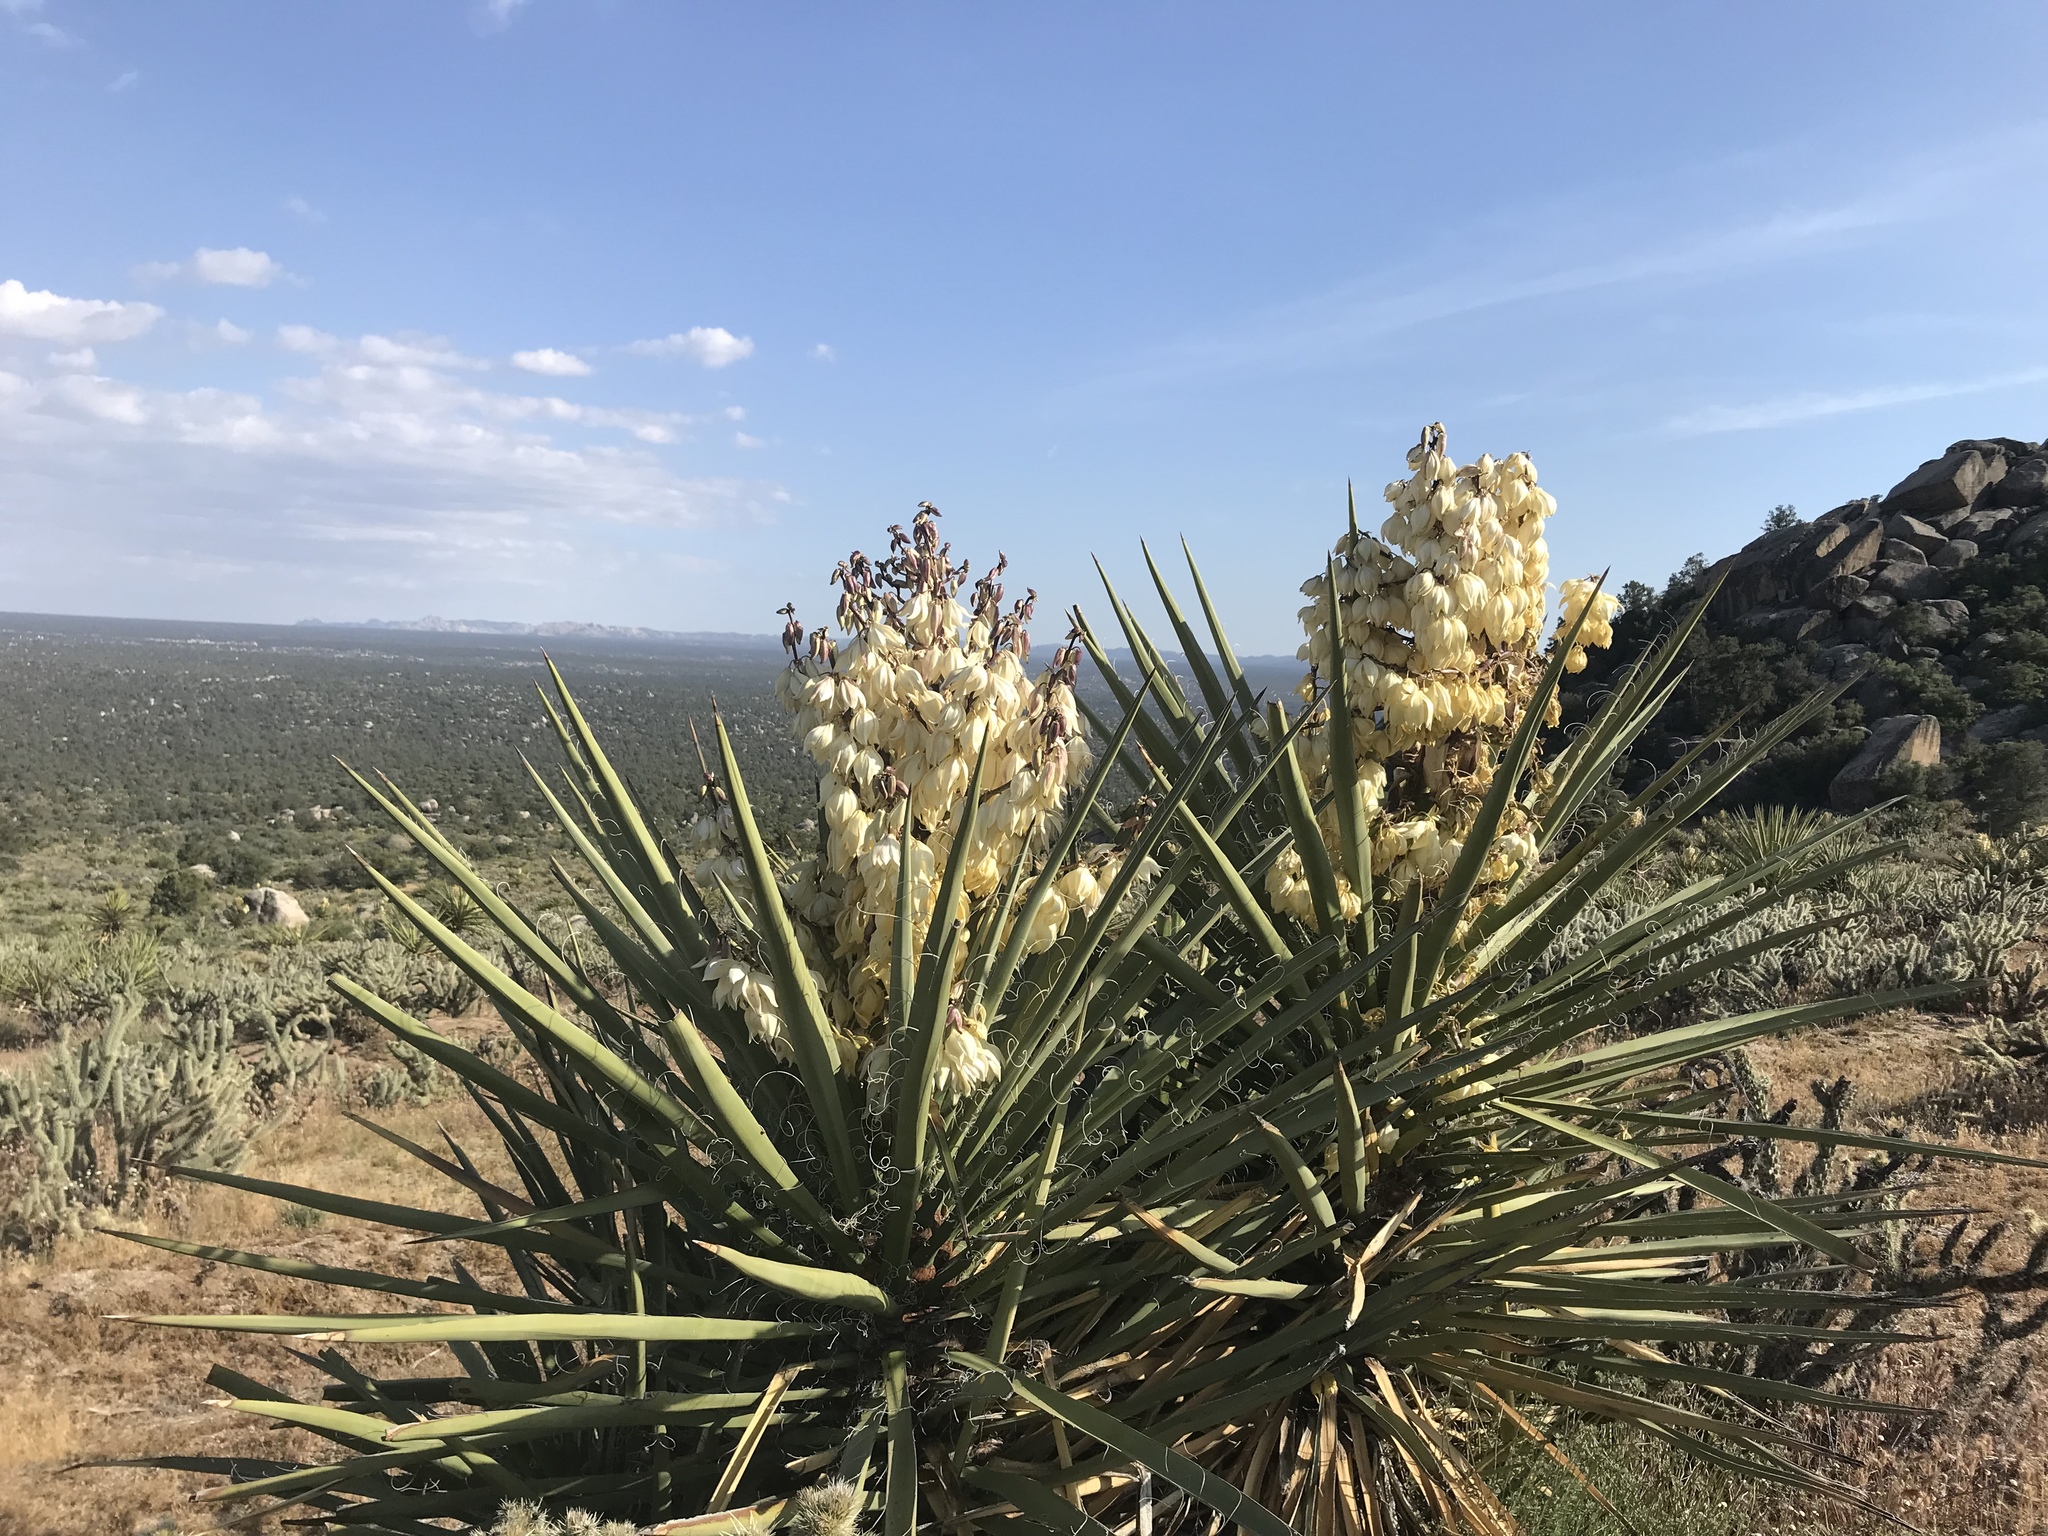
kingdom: Plantae
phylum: Tracheophyta
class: Liliopsida
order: Asparagales
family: Asparagaceae
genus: Yucca
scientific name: Yucca schidigera
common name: Mojave yucca
